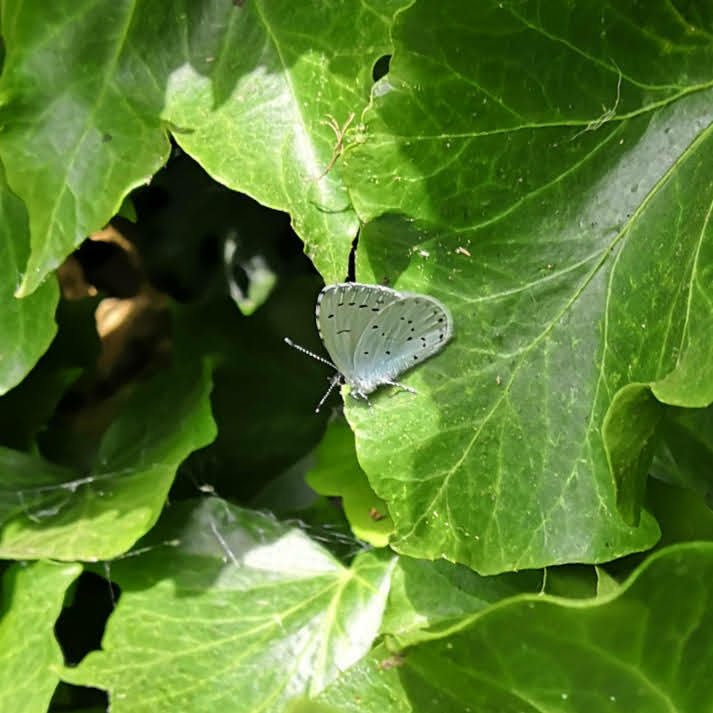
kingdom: Animalia
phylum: Arthropoda
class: Insecta
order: Lepidoptera
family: Lycaenidae
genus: Celastrina
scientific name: Celastrina argiolus
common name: Holly blue
